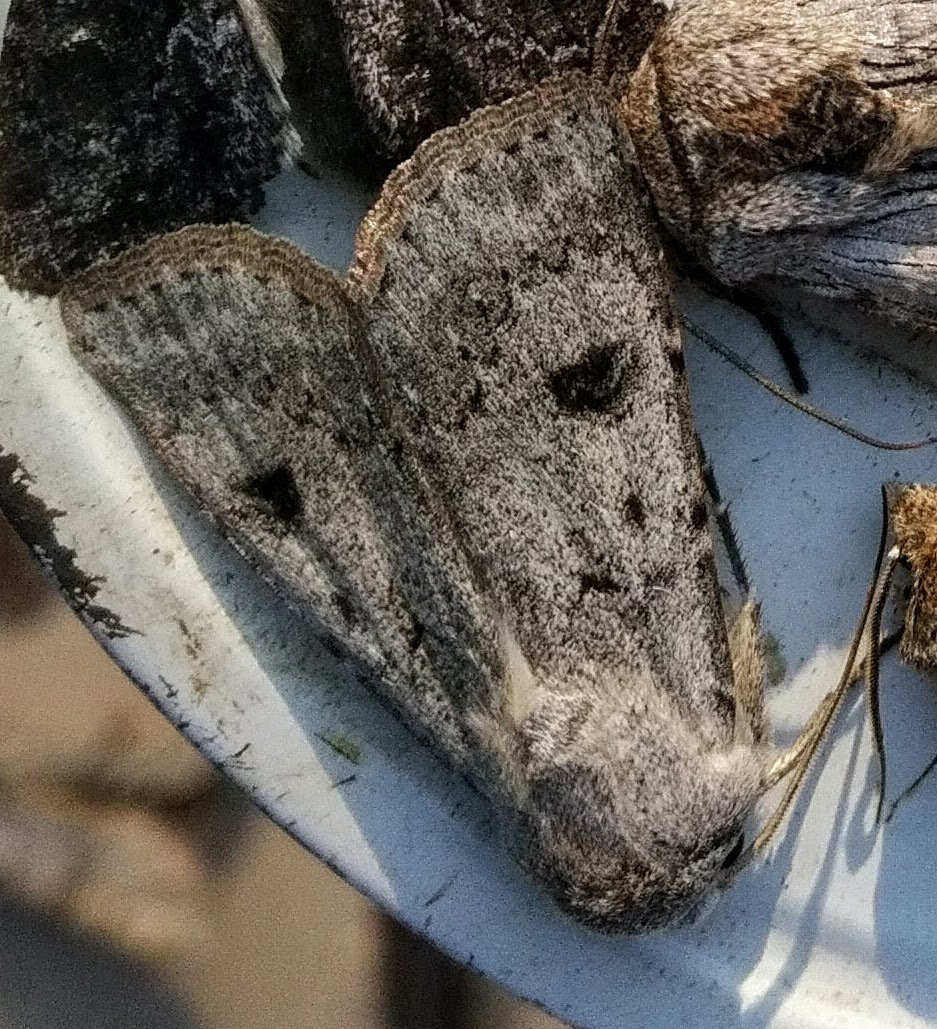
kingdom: Animalia
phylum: Arthropoda
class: Insecta
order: Lepidoptera
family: Noctuidae
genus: Agrotis
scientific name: Agrotis vetusta
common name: Old man dart
